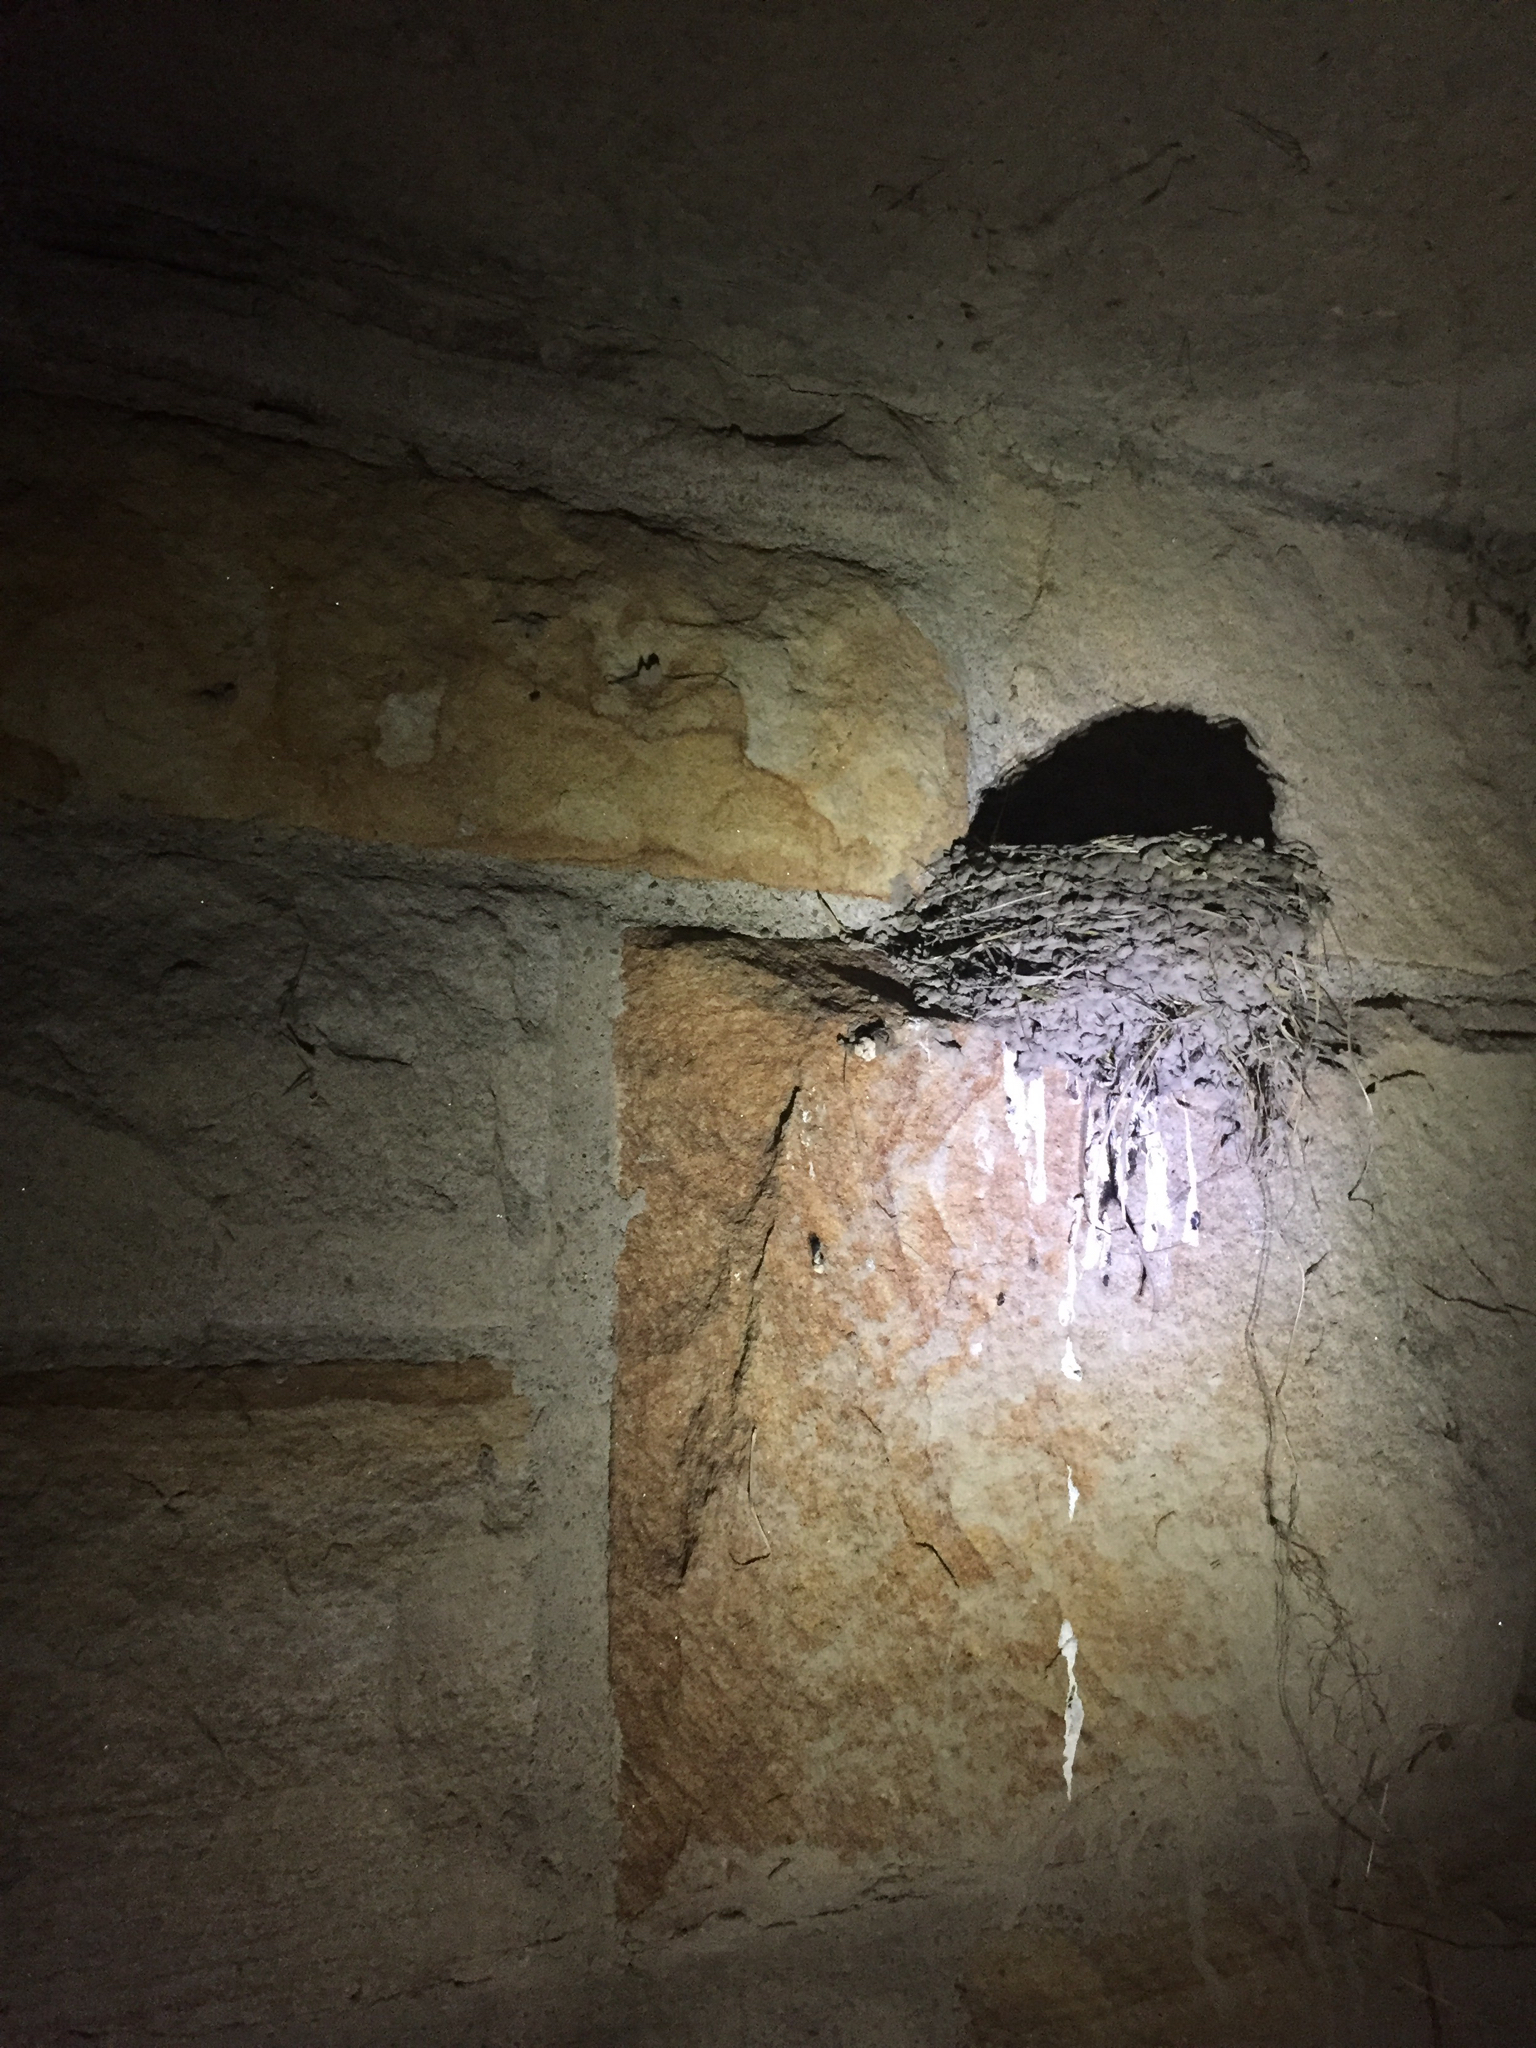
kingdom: Animalia
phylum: Chordata
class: Aves
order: Passeriformes
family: Hirundinidae
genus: Hirundo
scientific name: Hirundo rustica
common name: Barn swallow
